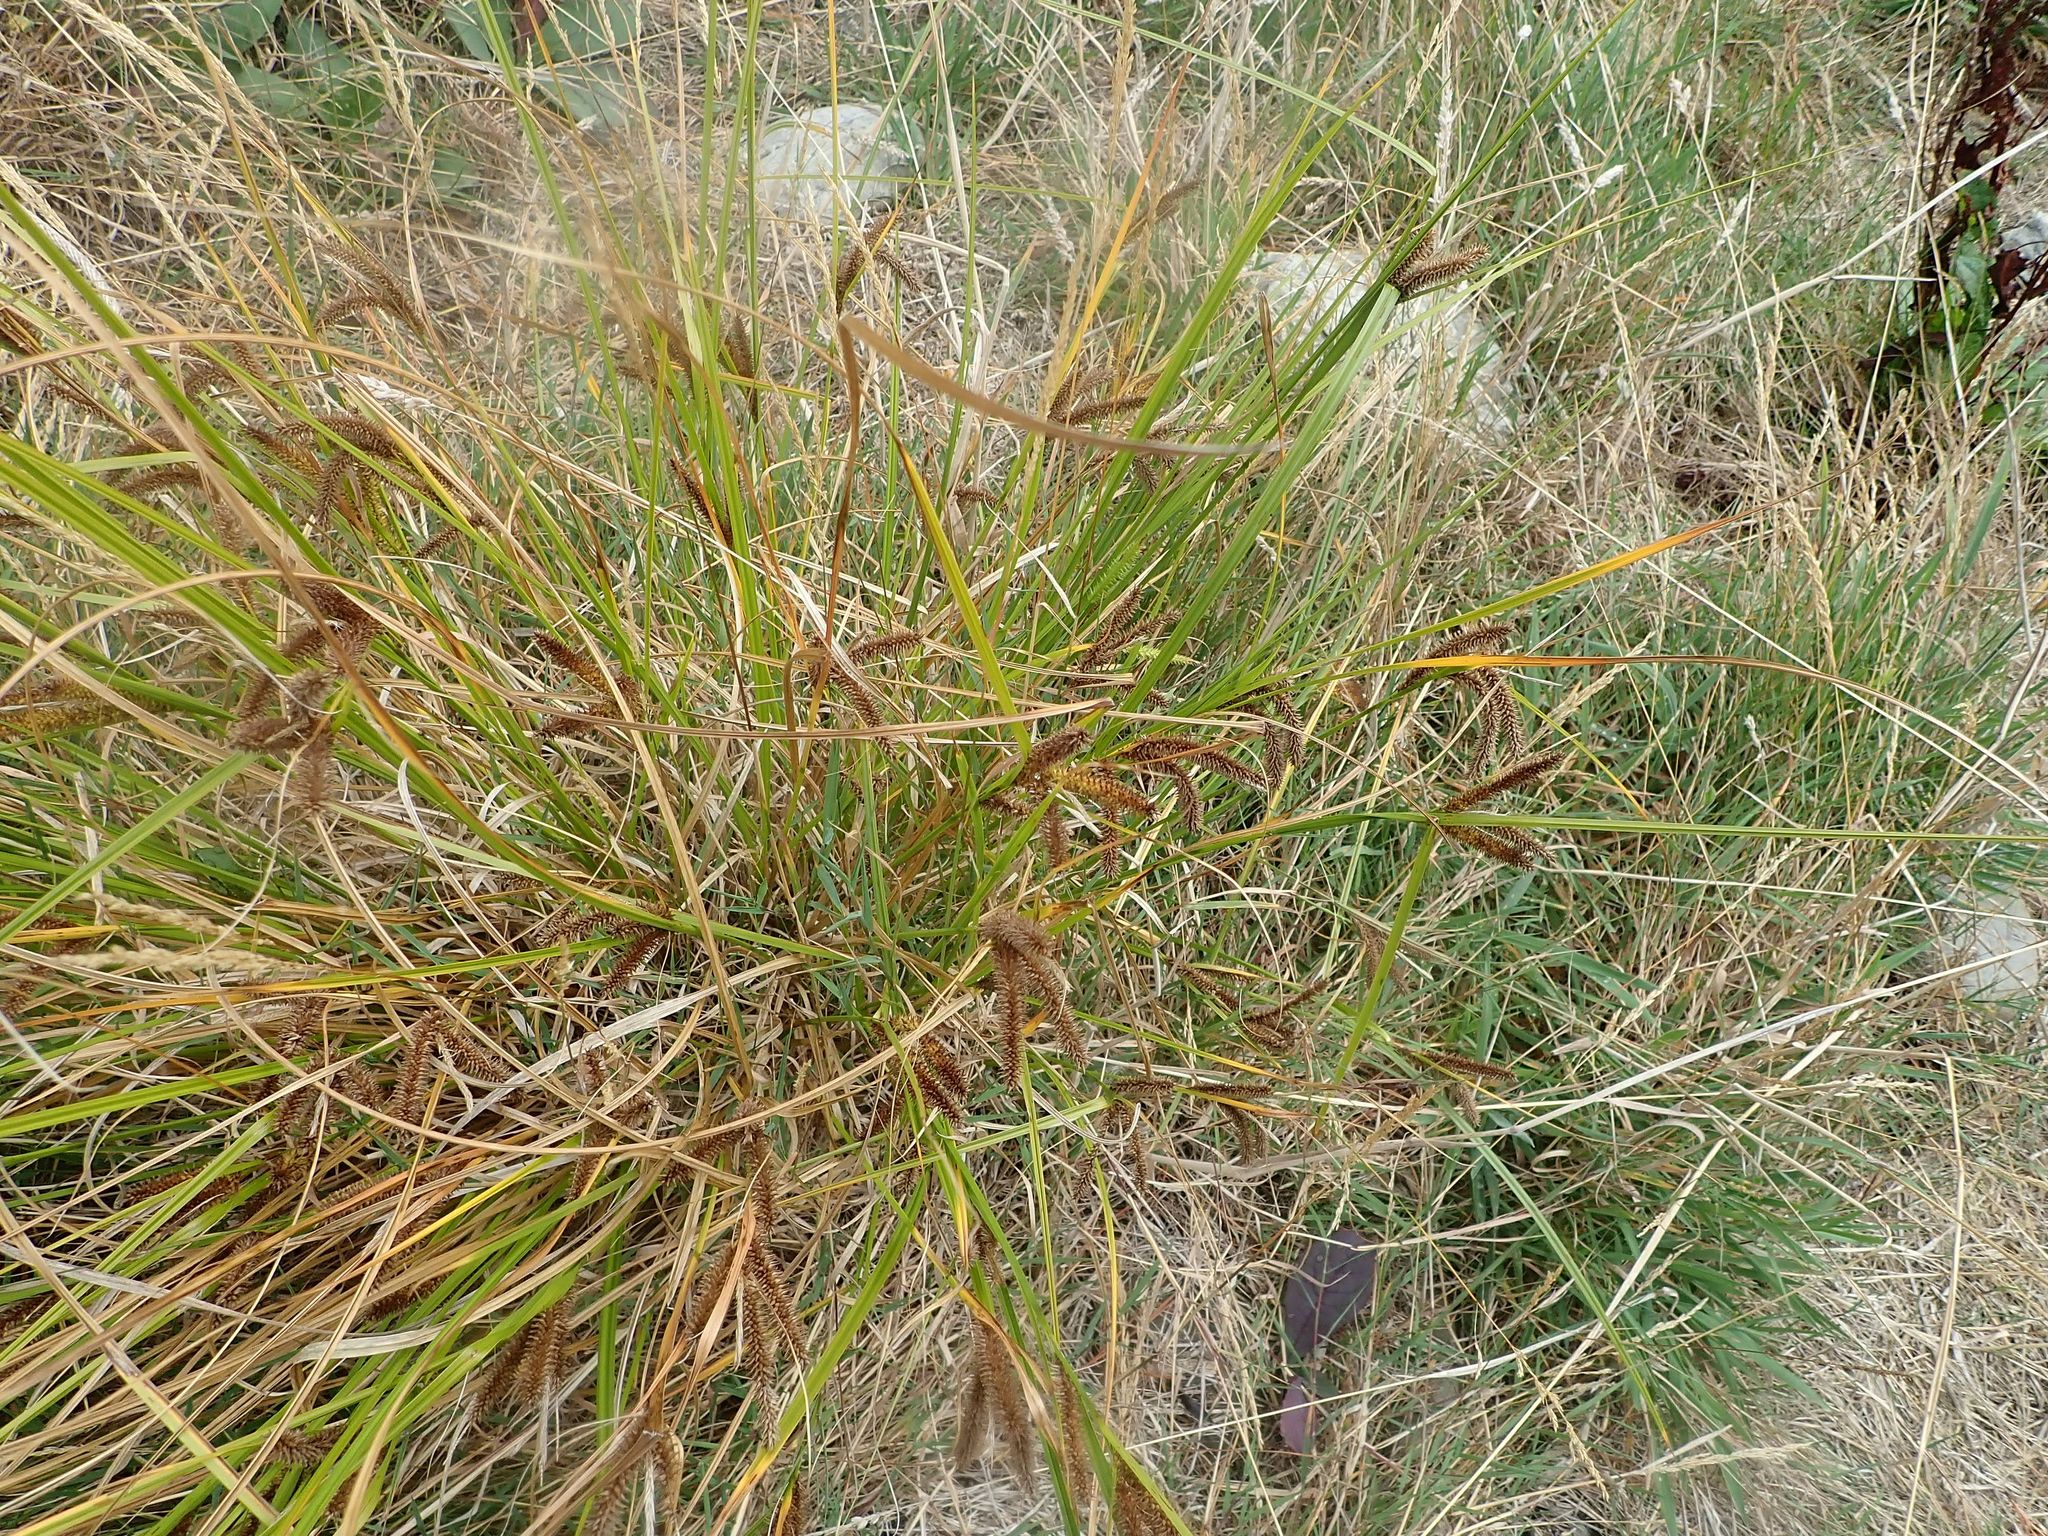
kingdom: Plantae
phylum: Tracheophyta
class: Liliopsida
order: Poales
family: Cyperaceae
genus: Carex
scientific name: Carex maorica
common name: Maori sedge
